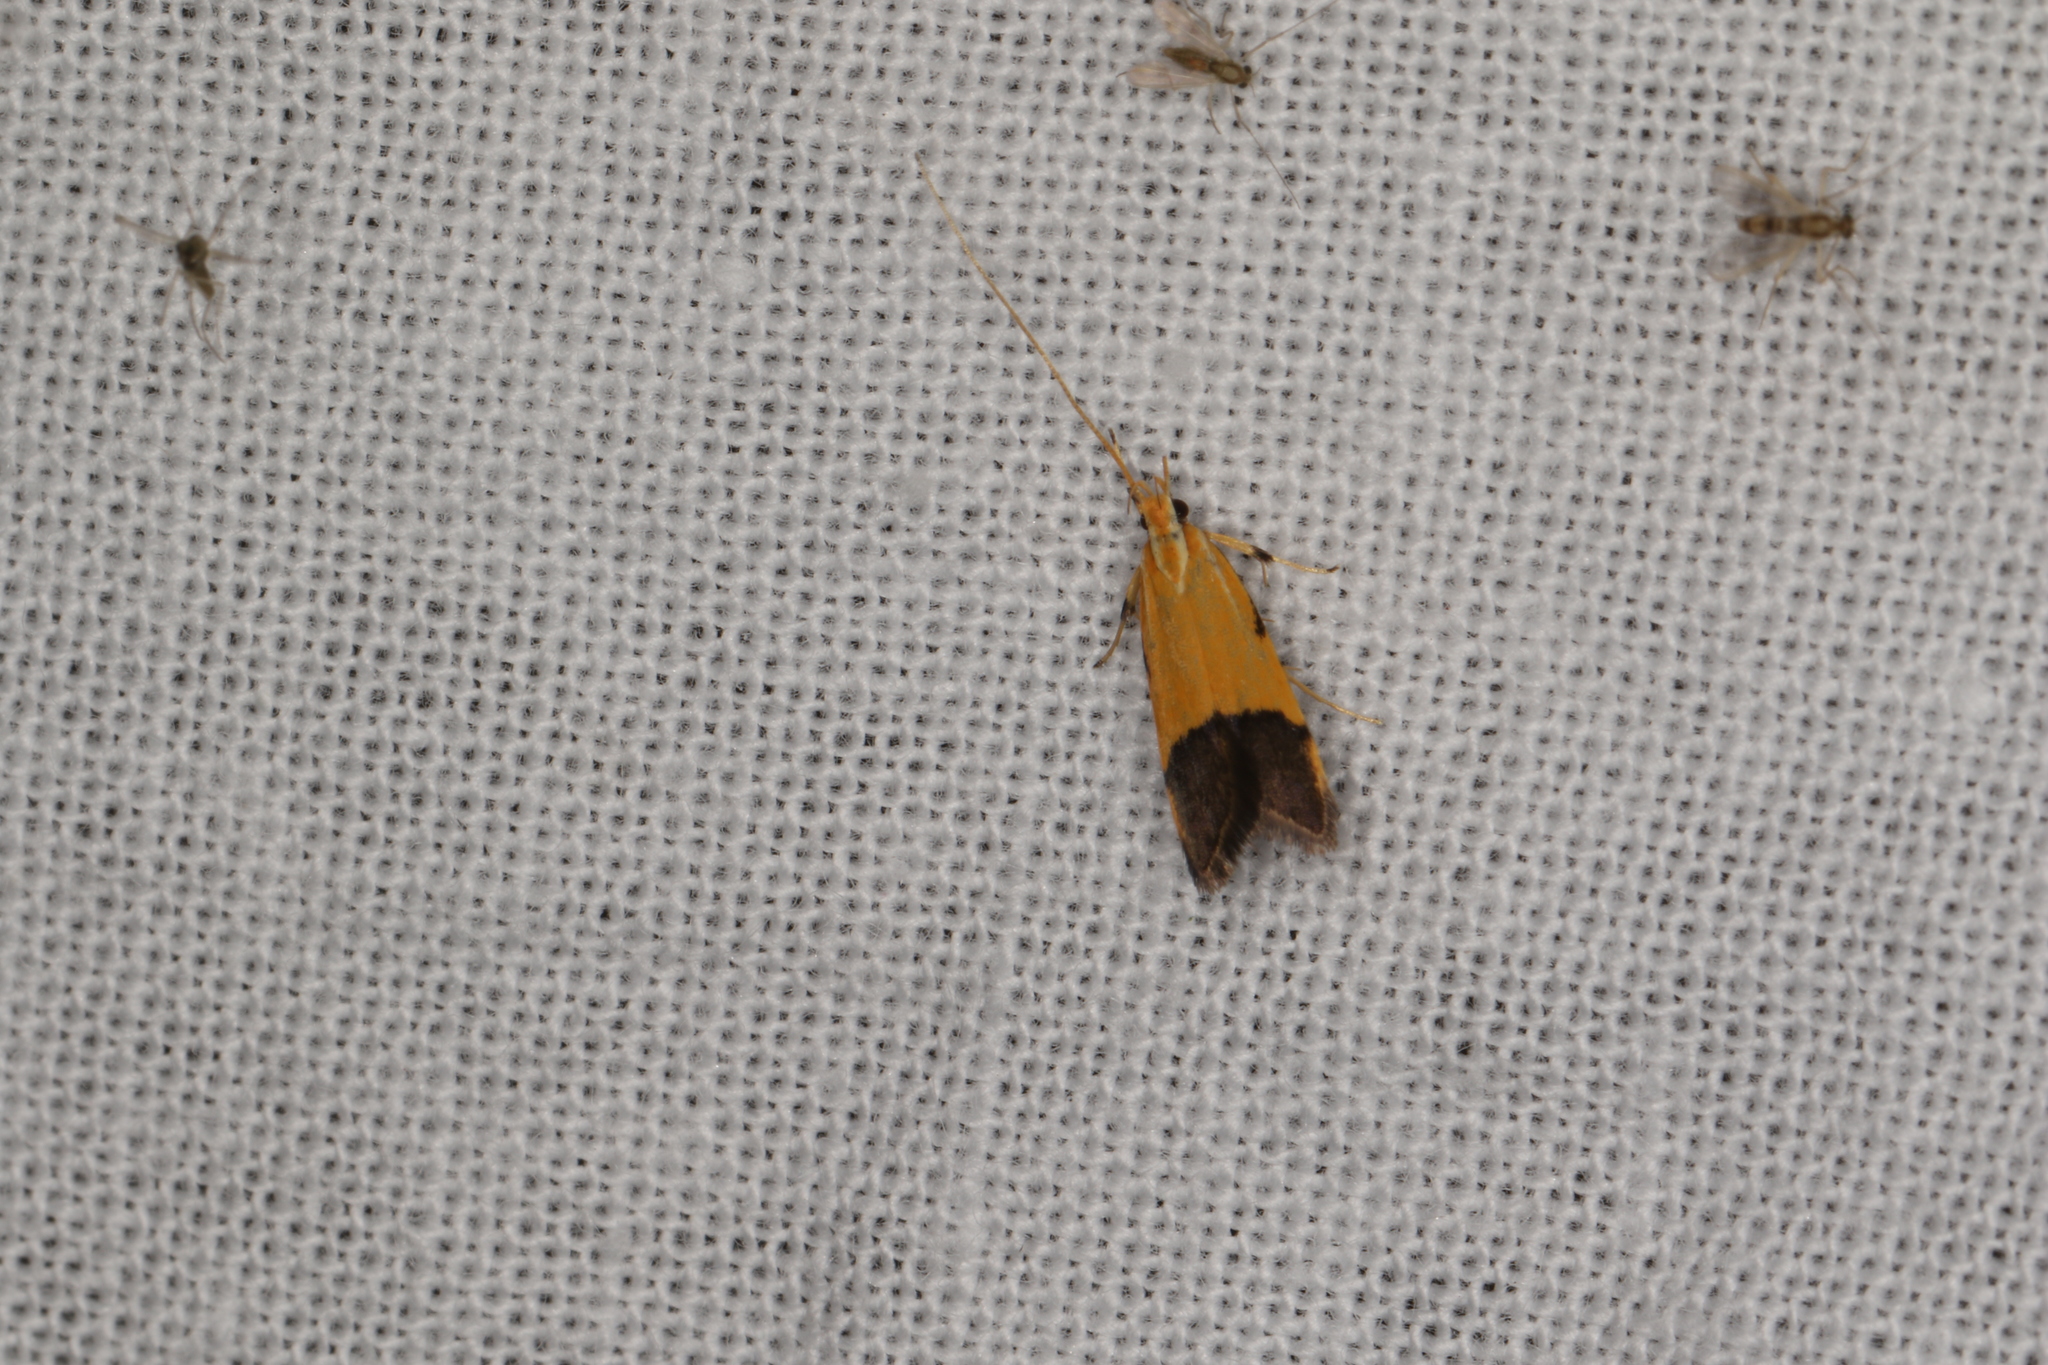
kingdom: Animalia
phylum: Arthropoda
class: Insecta
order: Lepidoptera
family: Lecithoceridae
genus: Crocanthes
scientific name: Crocanthes micradelpha
